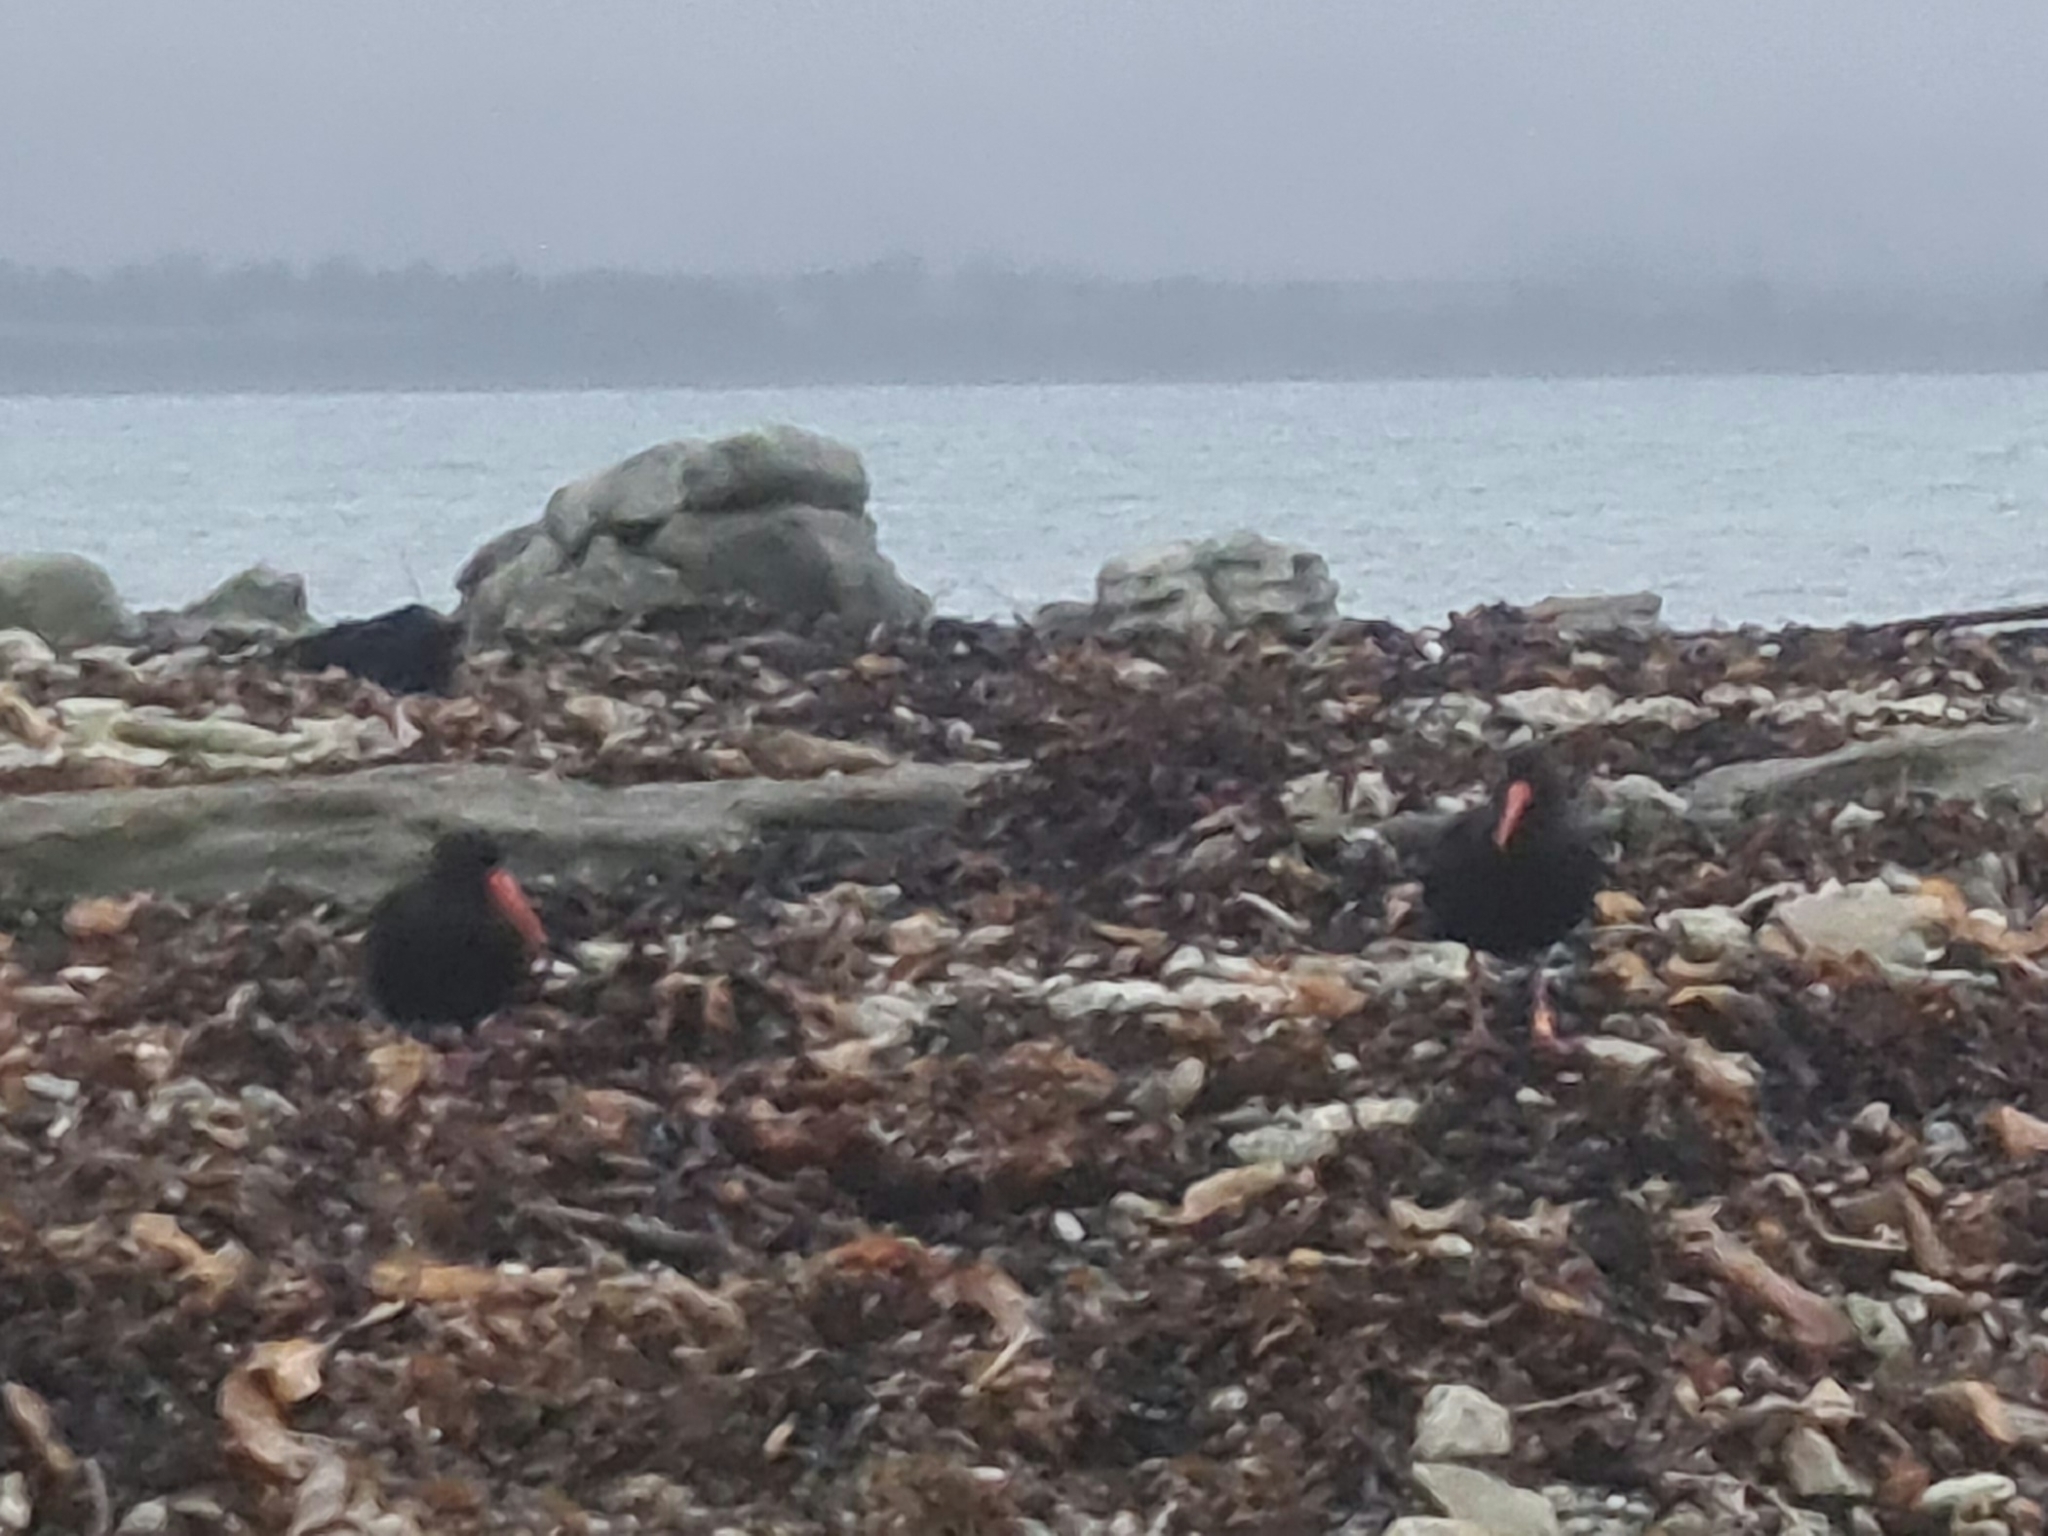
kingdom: Animalia
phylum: Chordata
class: Aves
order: Charadriiformes
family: Haematopodidae
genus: Haematopus
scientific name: Haematopus unicolor
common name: Variable oystercatcher
